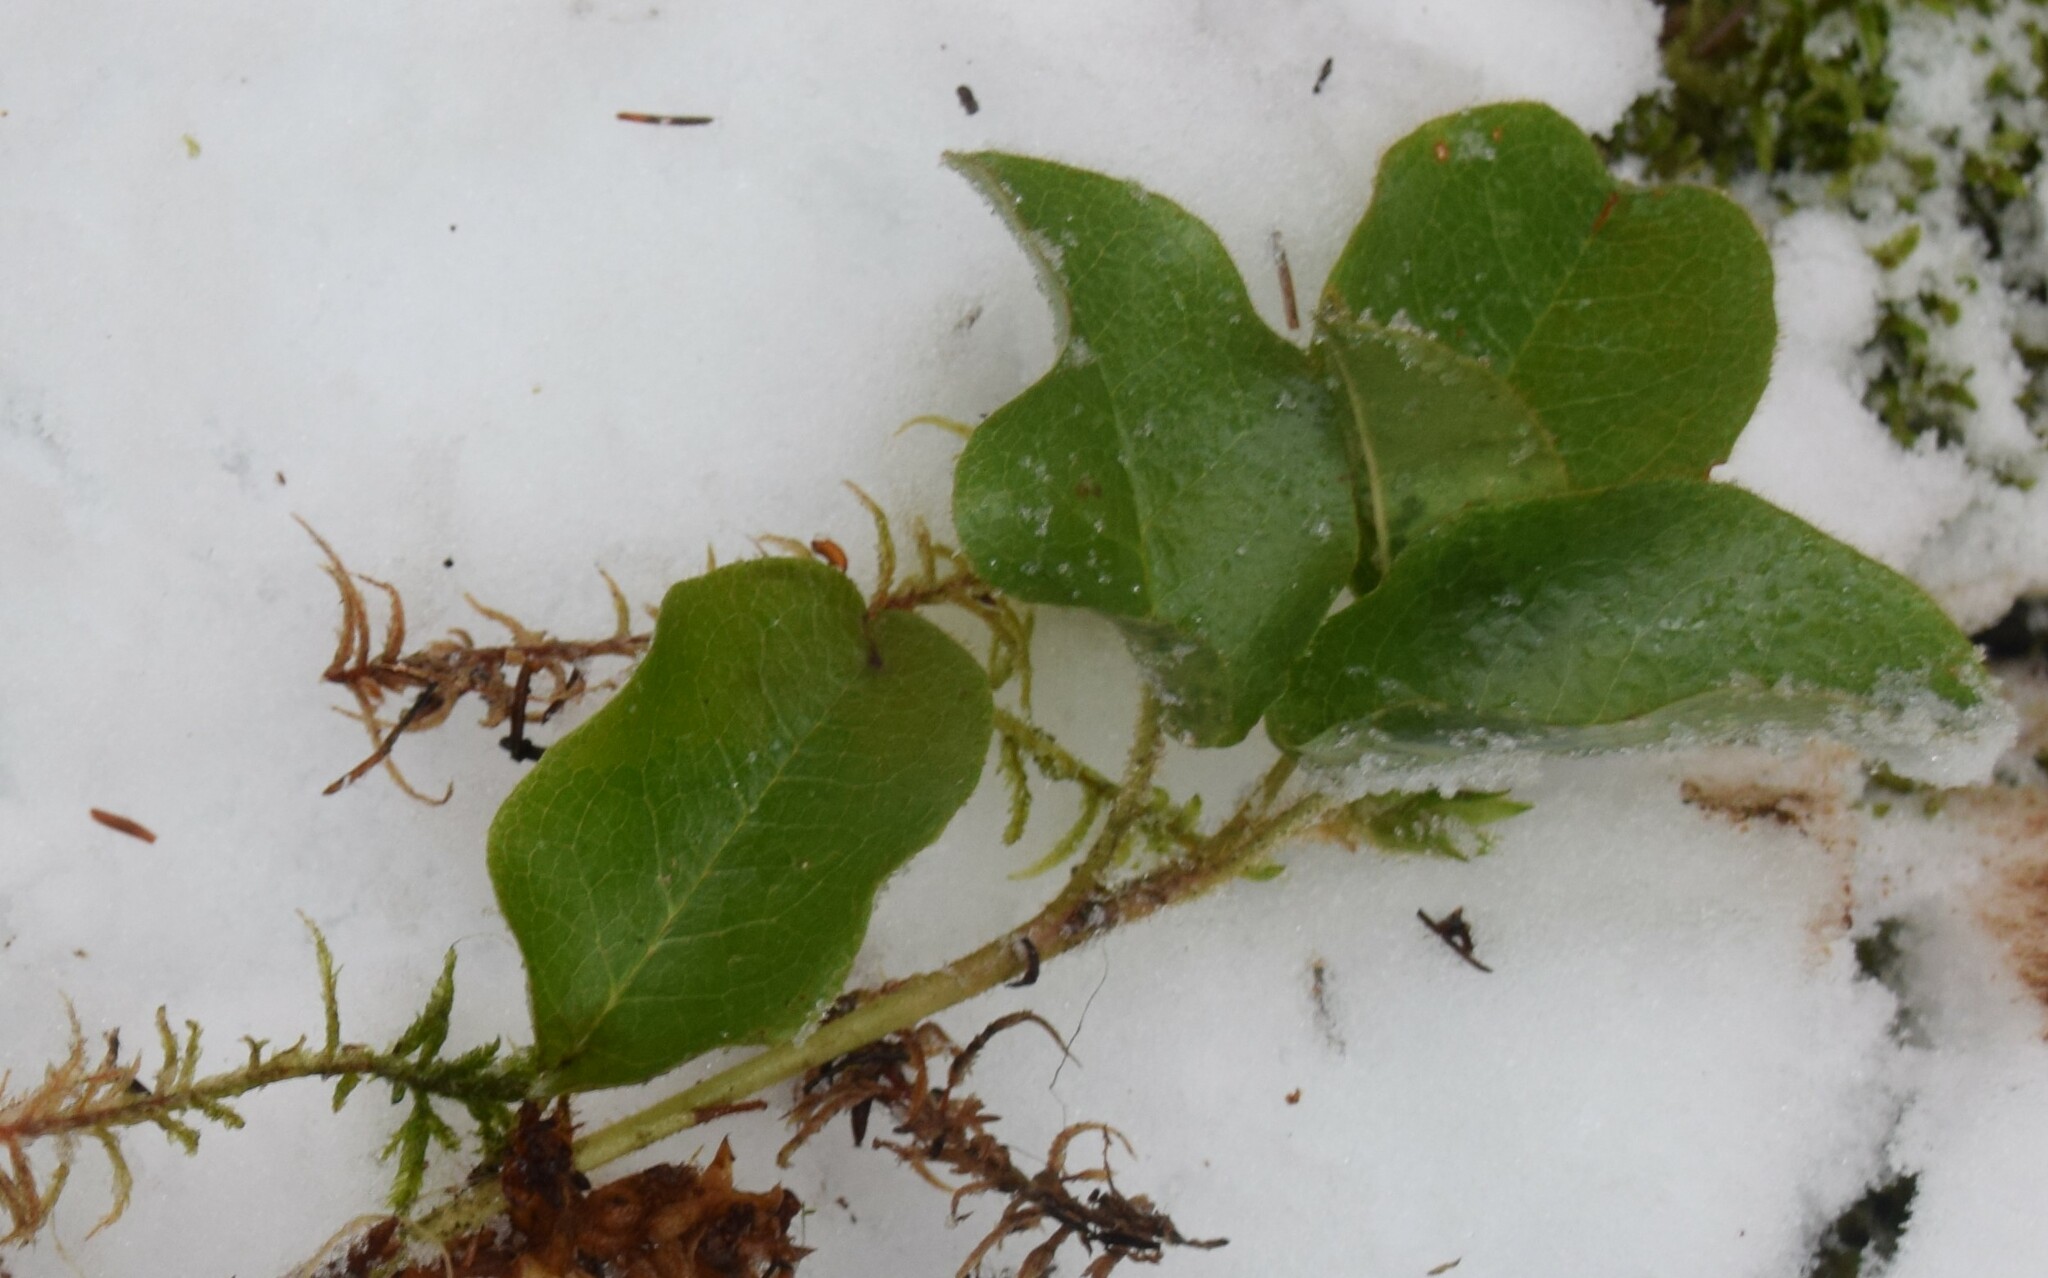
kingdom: Plantae
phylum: Tracheophyta
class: Magnoliopsida
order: Ericales
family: Ericaceae
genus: Epigaea
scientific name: Epigaea repens
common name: Gravelroot
